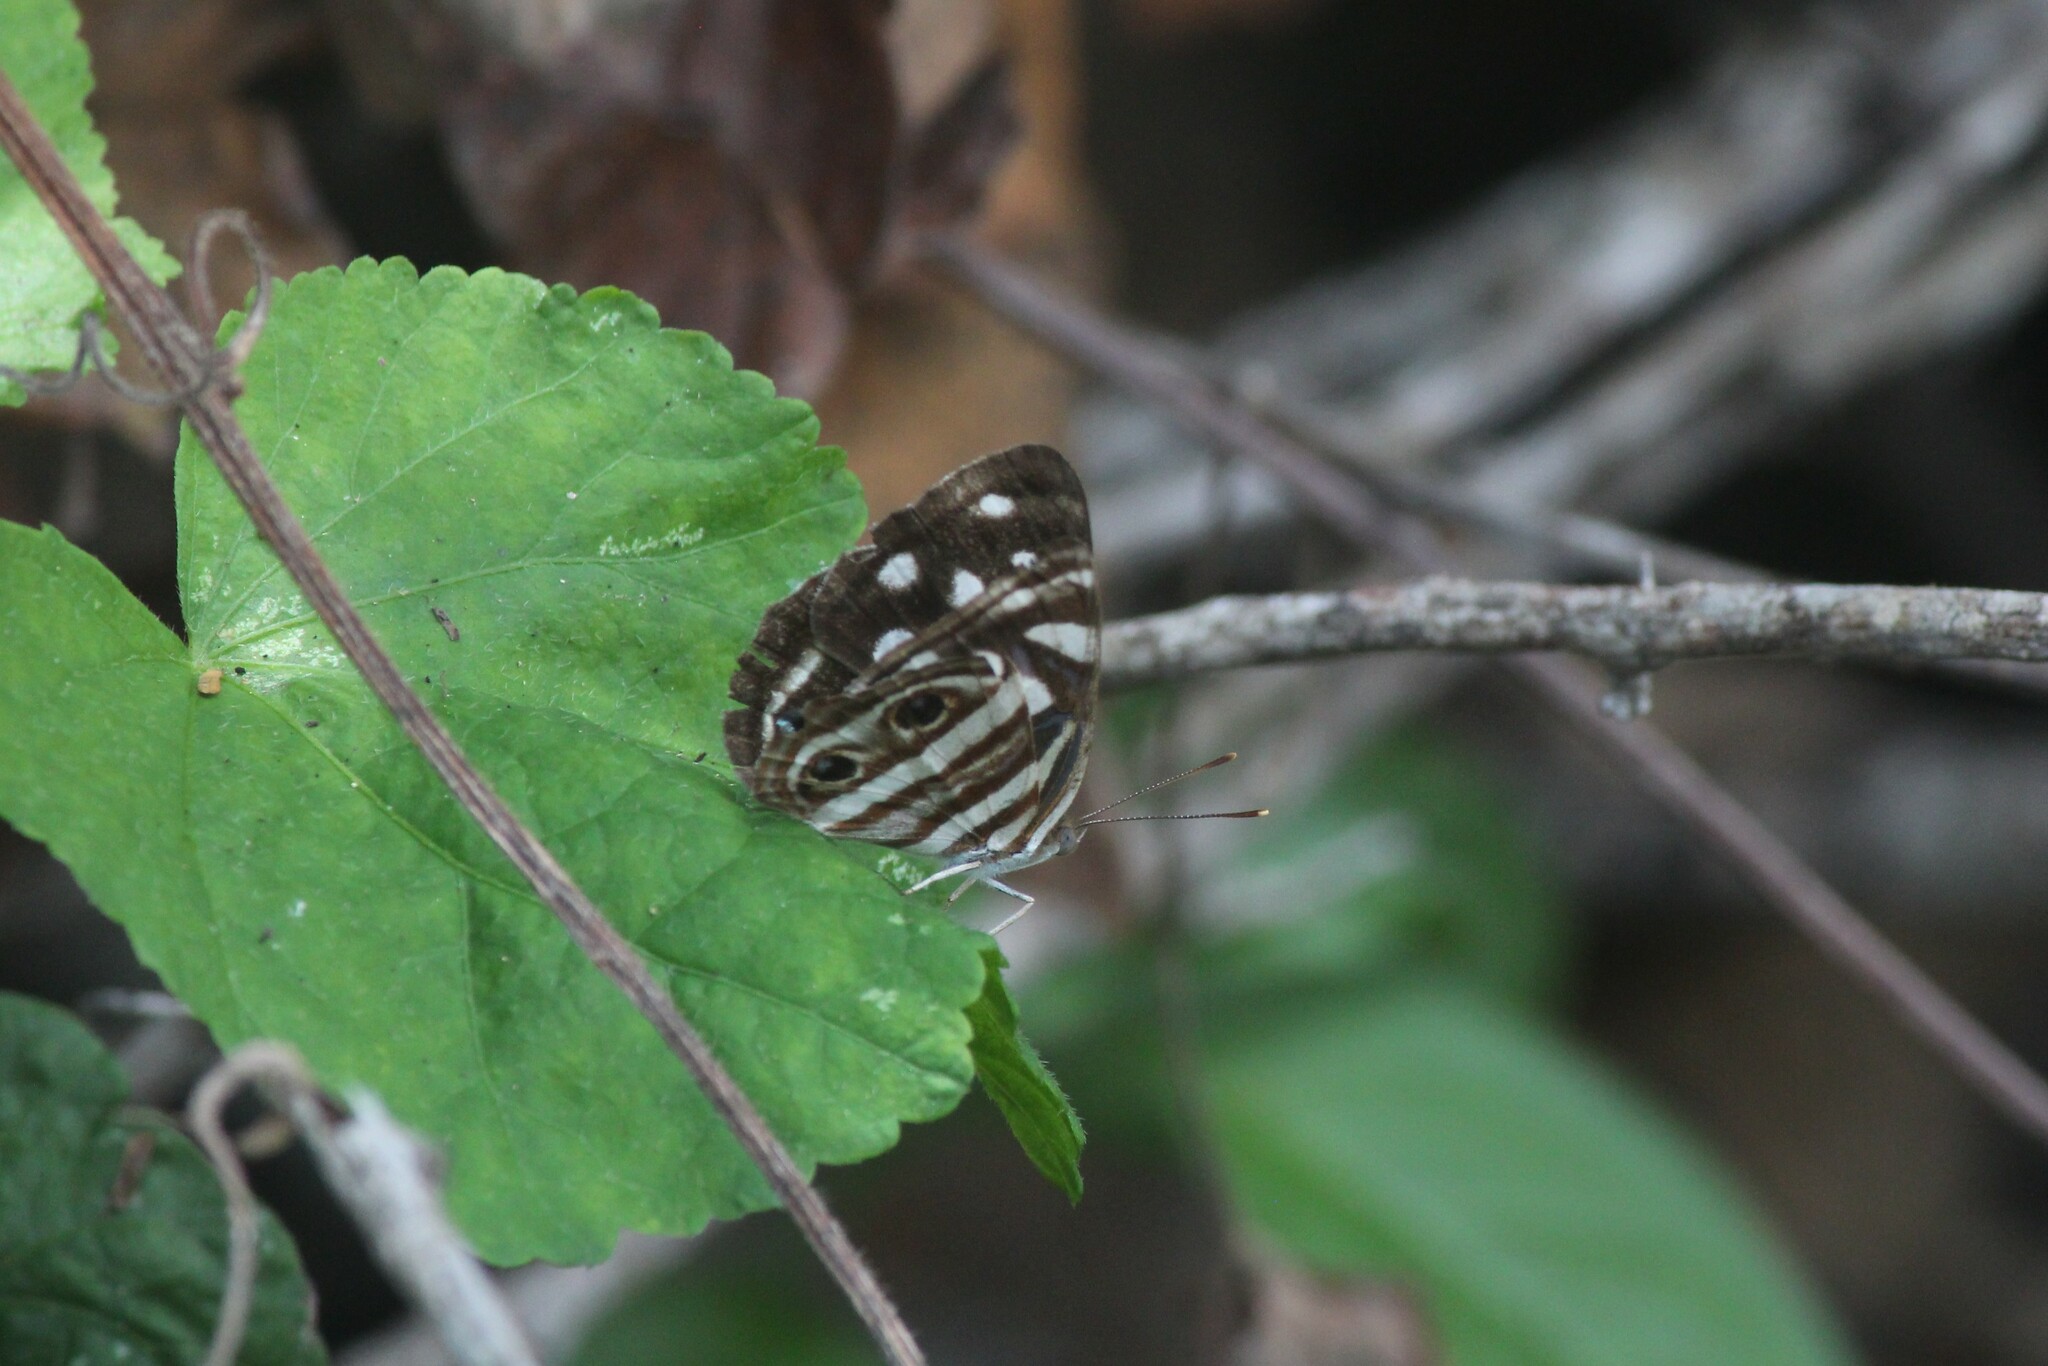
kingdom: Animalia
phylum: Arthropoda
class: Insecta
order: Lepidoptera
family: Nymphalidae
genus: Dynamine
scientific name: Dynamine mylitta
